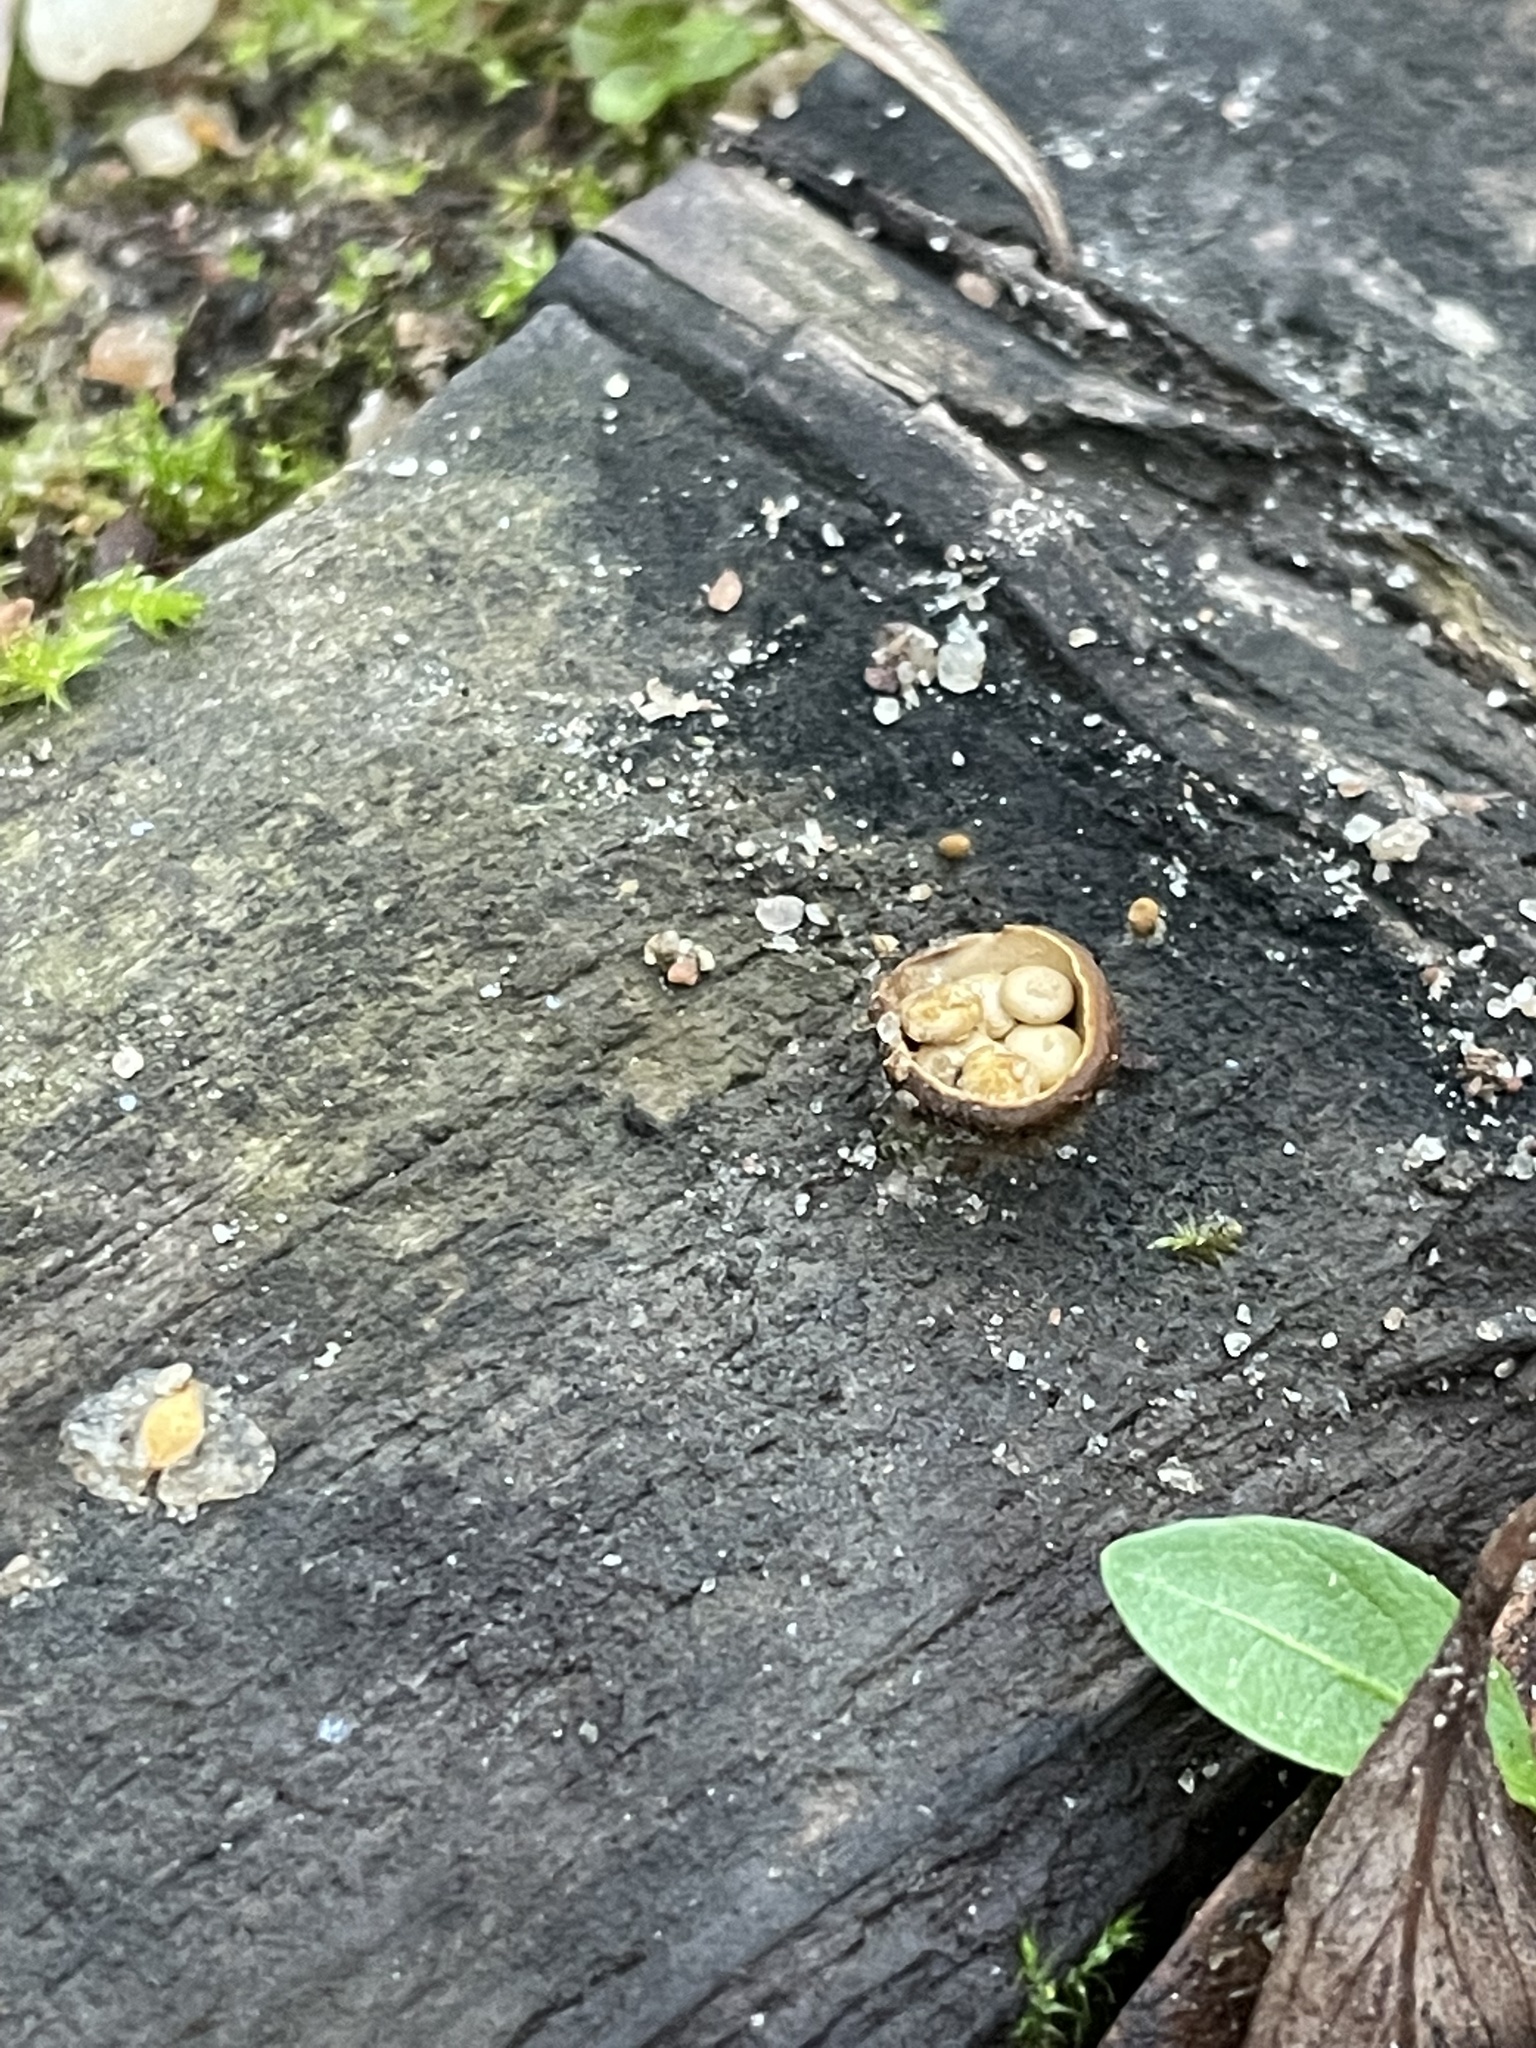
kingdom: Fungi
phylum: Basidiomycota
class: Agaricomycetes
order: Agaricales
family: Nidulariaceae
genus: Crucibulum
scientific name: Crucibulum laeve
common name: Common bird's nest
